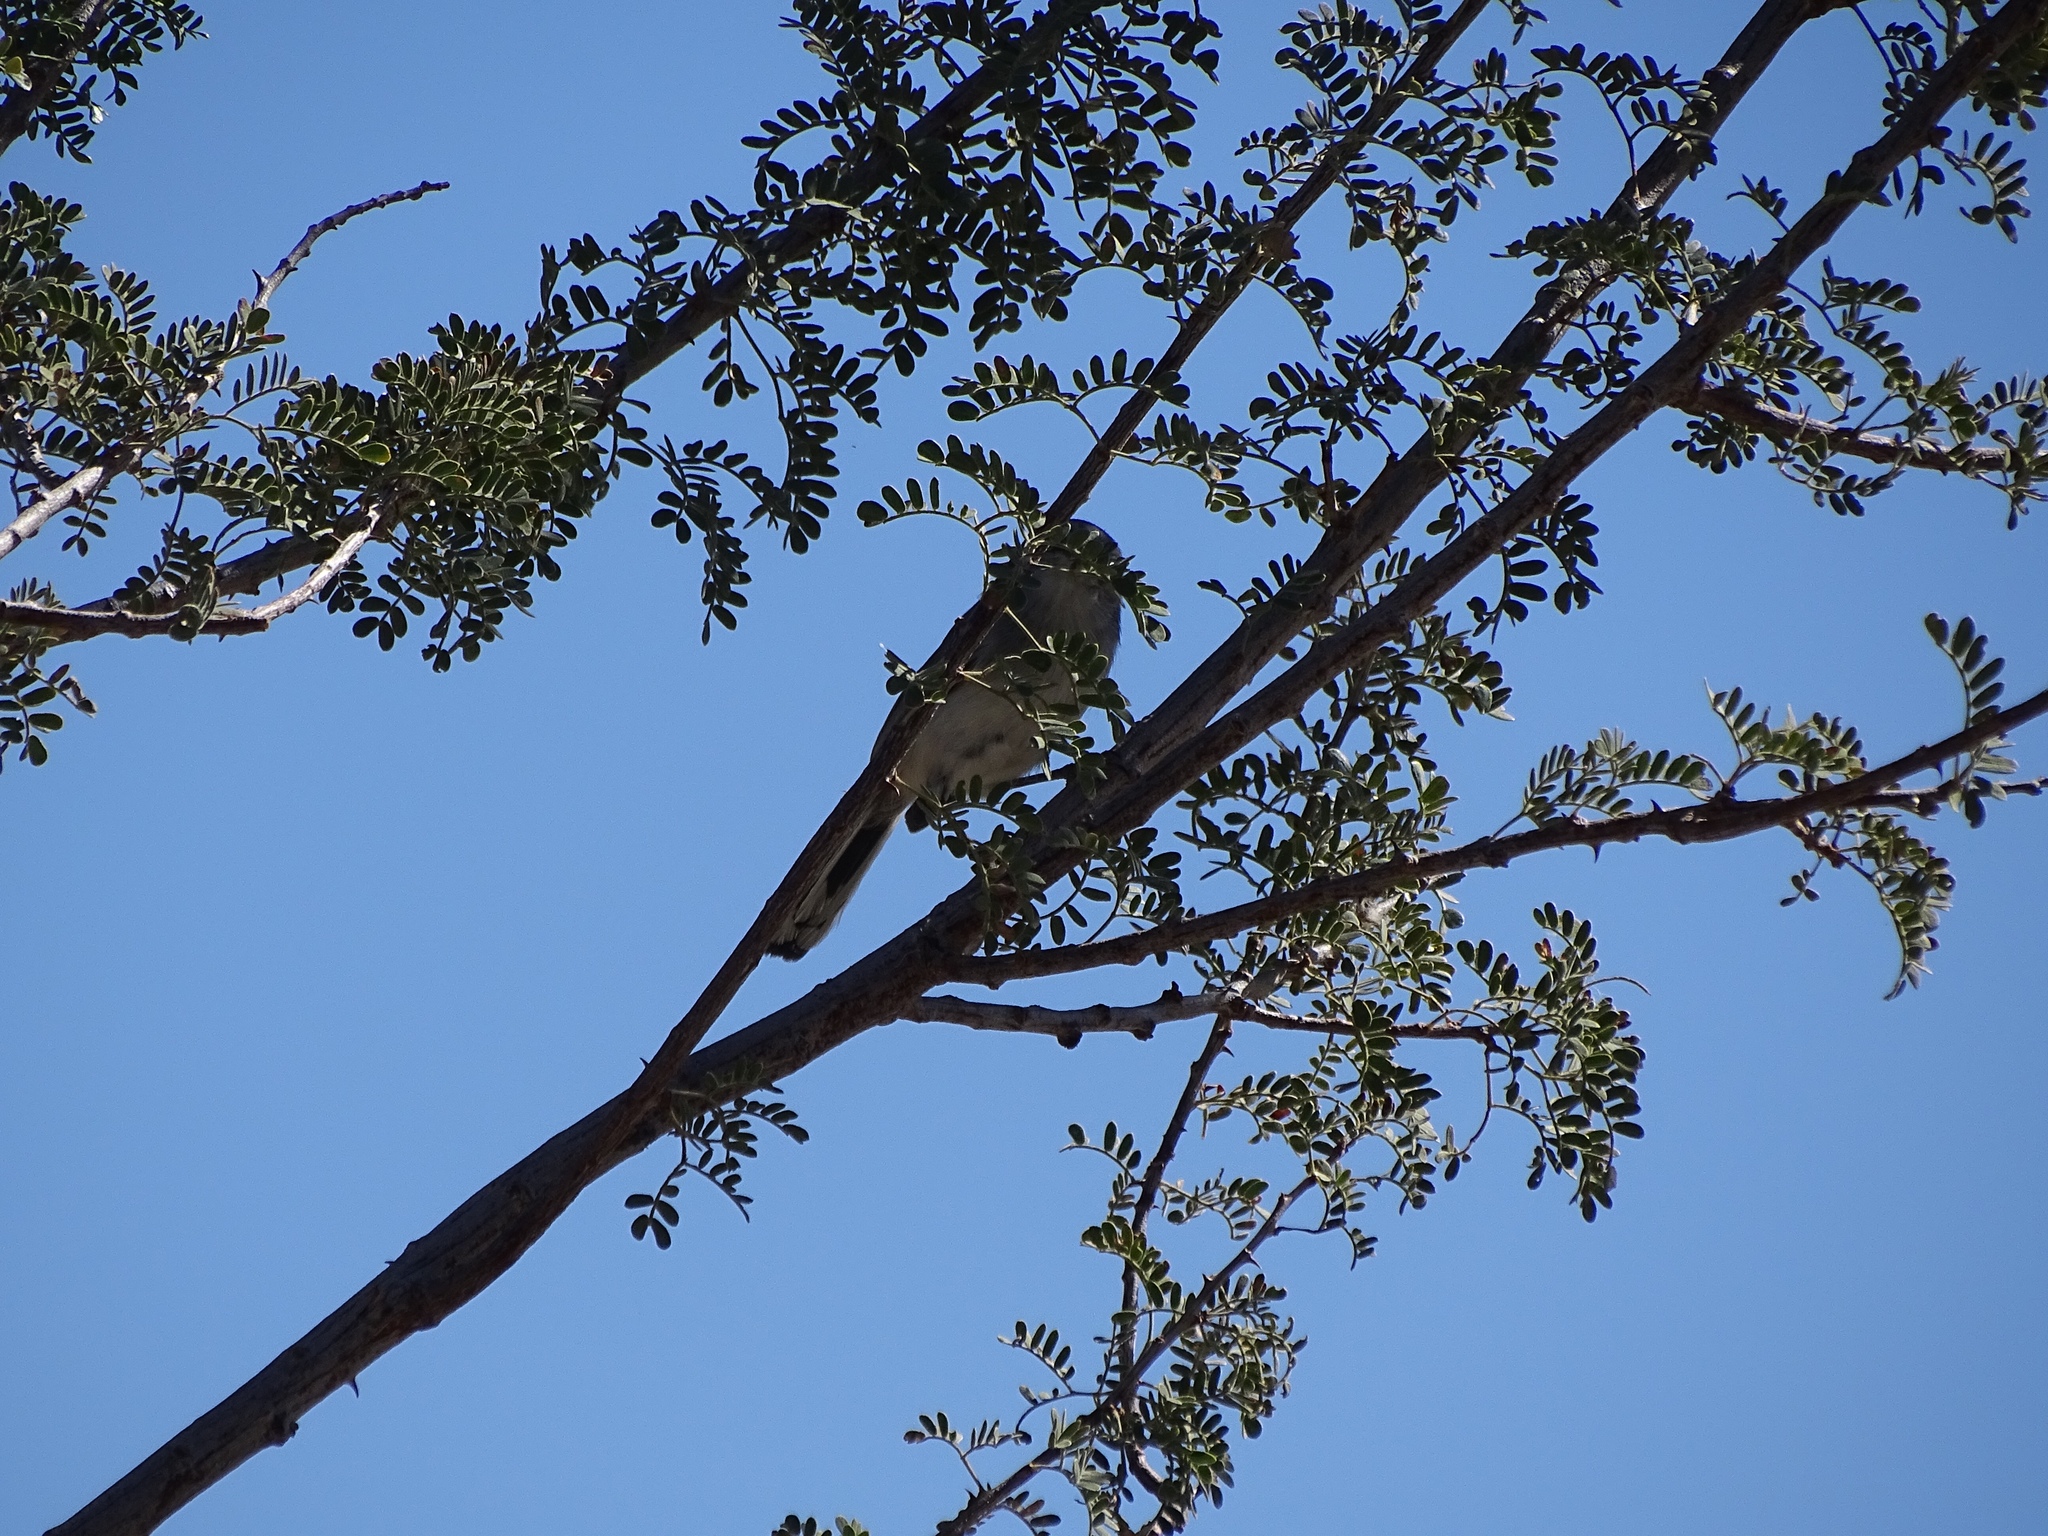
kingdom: Animalia
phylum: Chordata
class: Aves
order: Passeriformes
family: Polioptilidae
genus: Polioptila
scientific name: Polioptila melanura
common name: Black-tailed gnatcatcher
